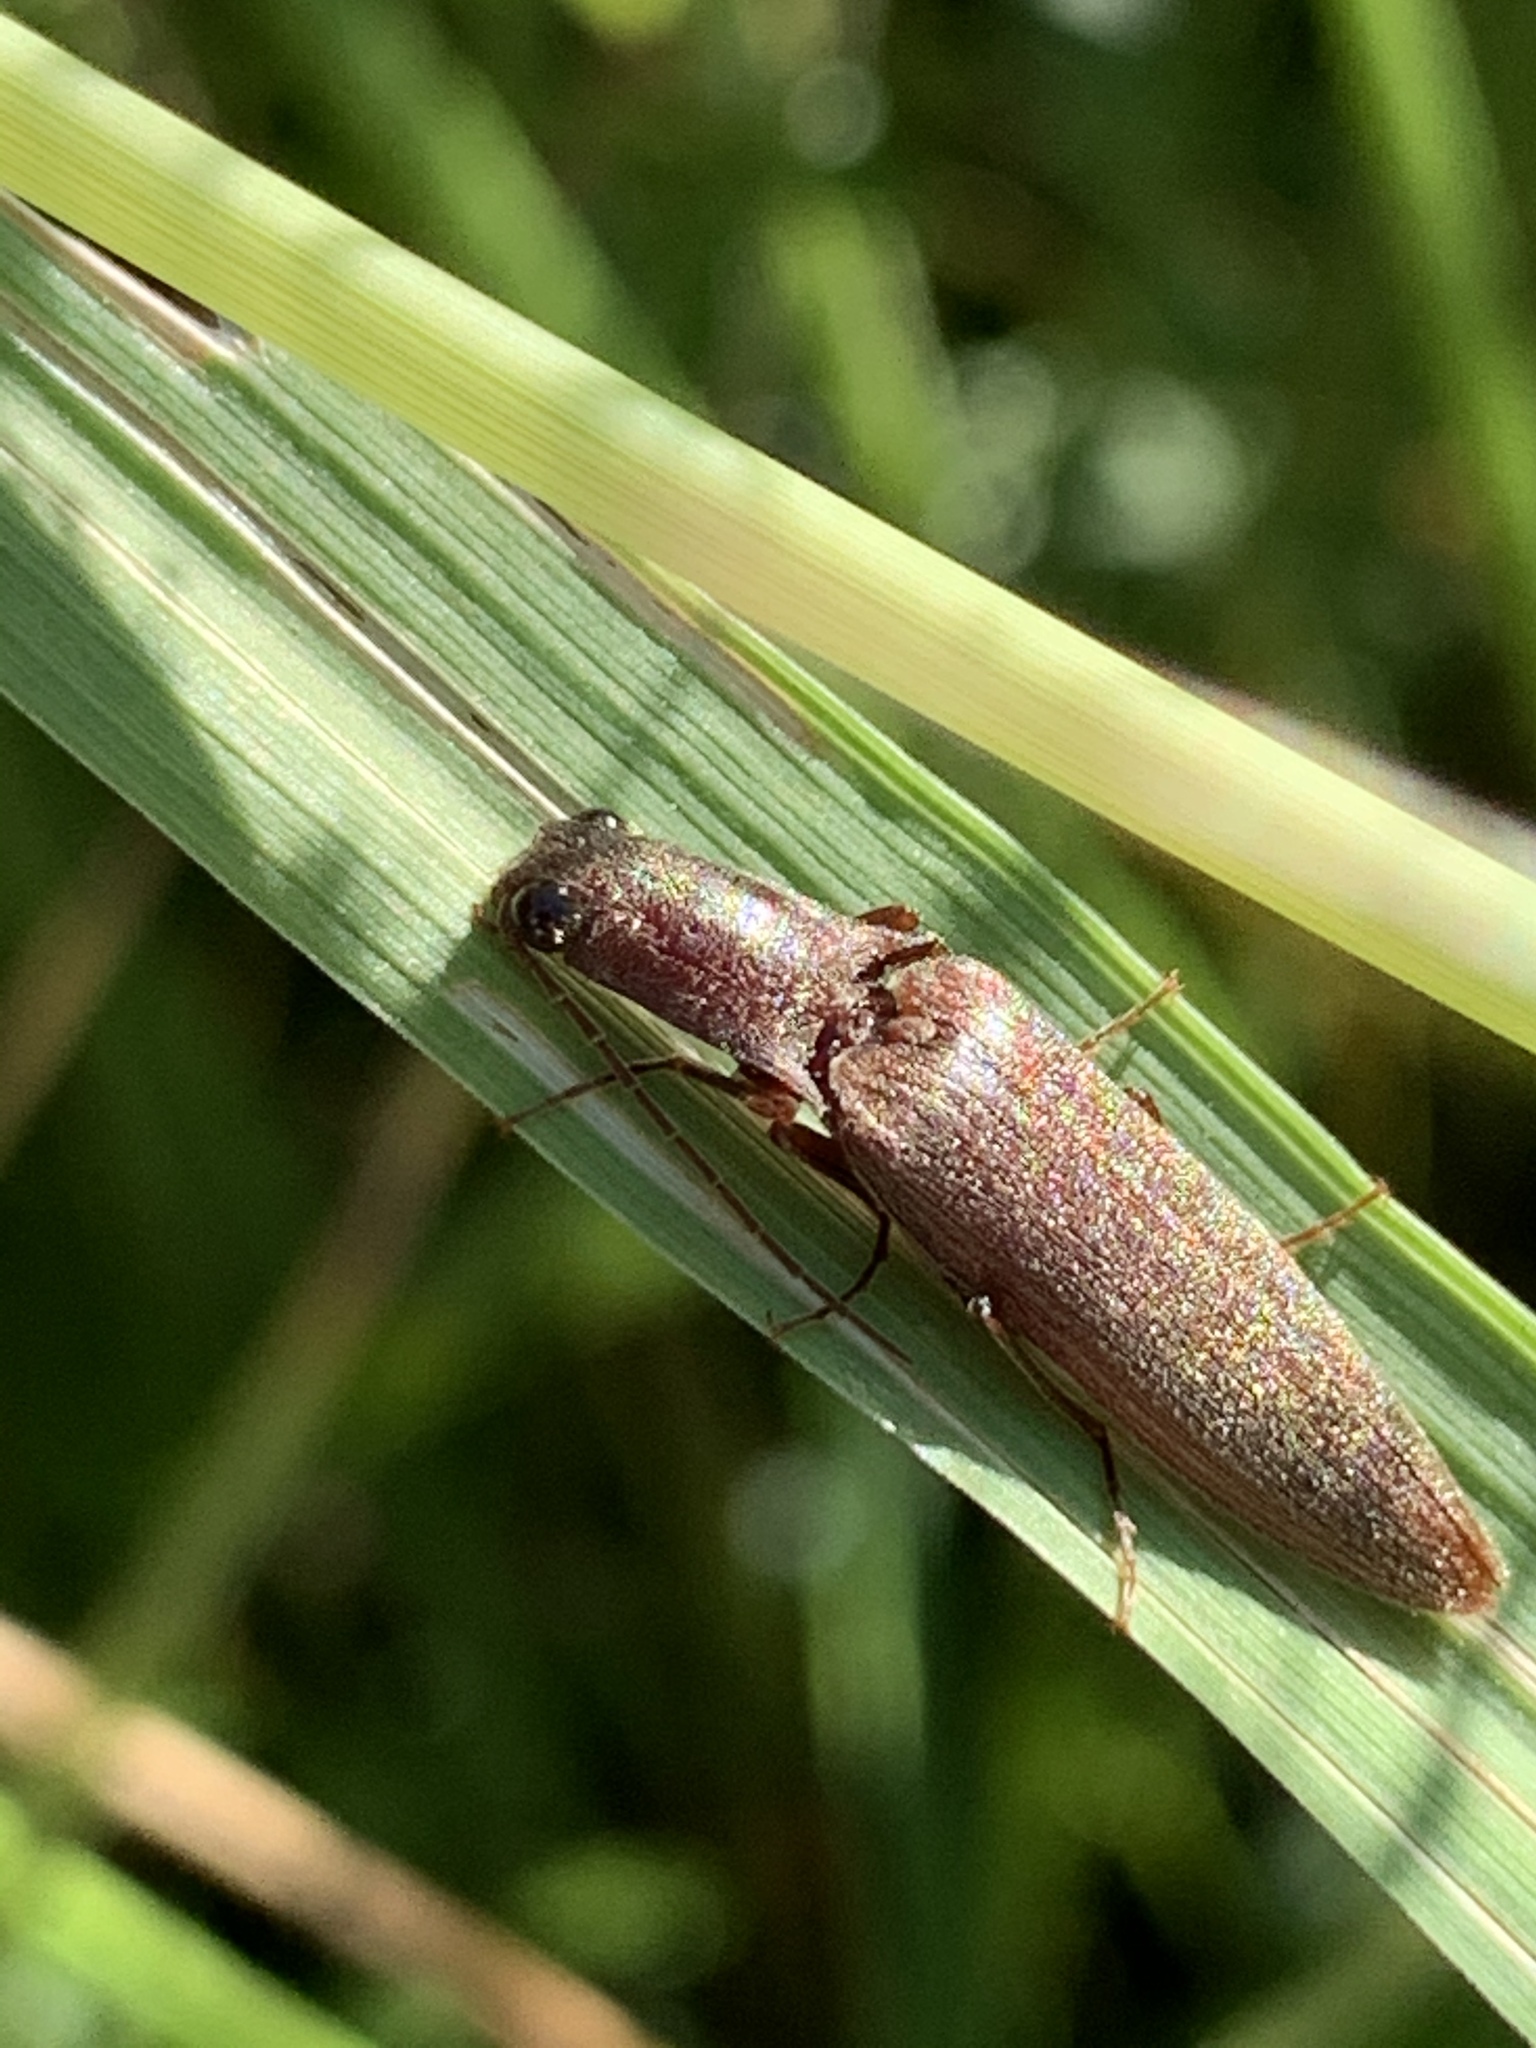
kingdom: Animalia
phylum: Arthropoda
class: Insecta
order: Coleoptera
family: Elateridae
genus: Proludius
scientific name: Proludius pyrros
